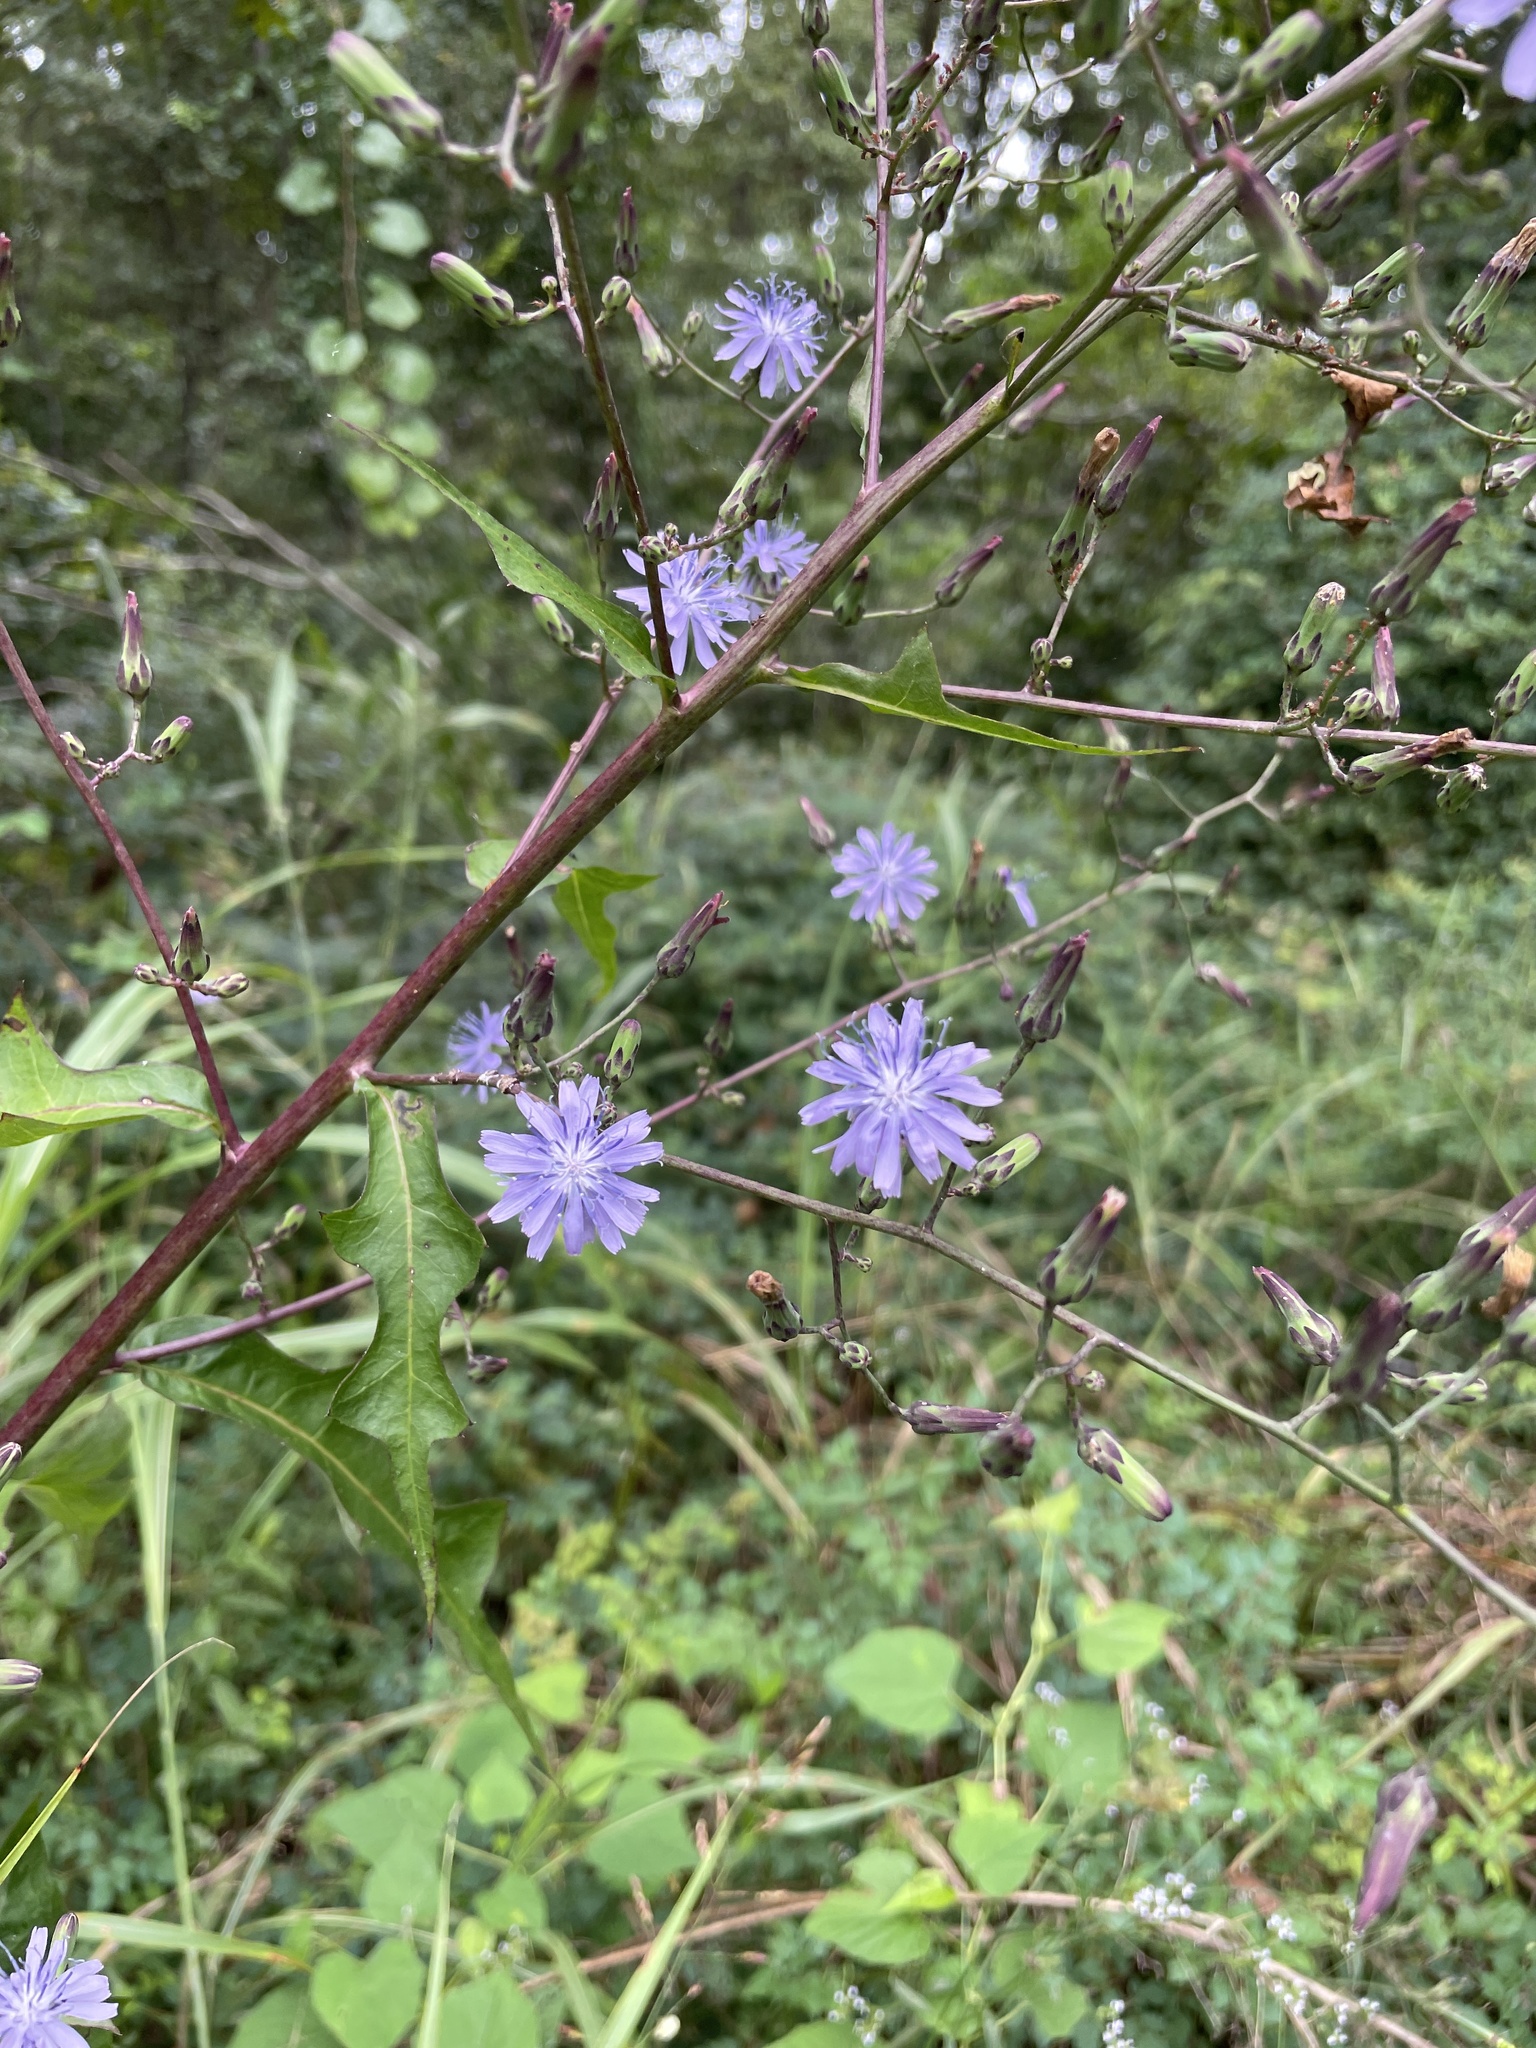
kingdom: Plantae
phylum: Tracheophyta
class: Magnoliopsida
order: Asterales
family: Asteraceae
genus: Lactuca
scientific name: Lactuca floridana
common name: Woodland lettuce
